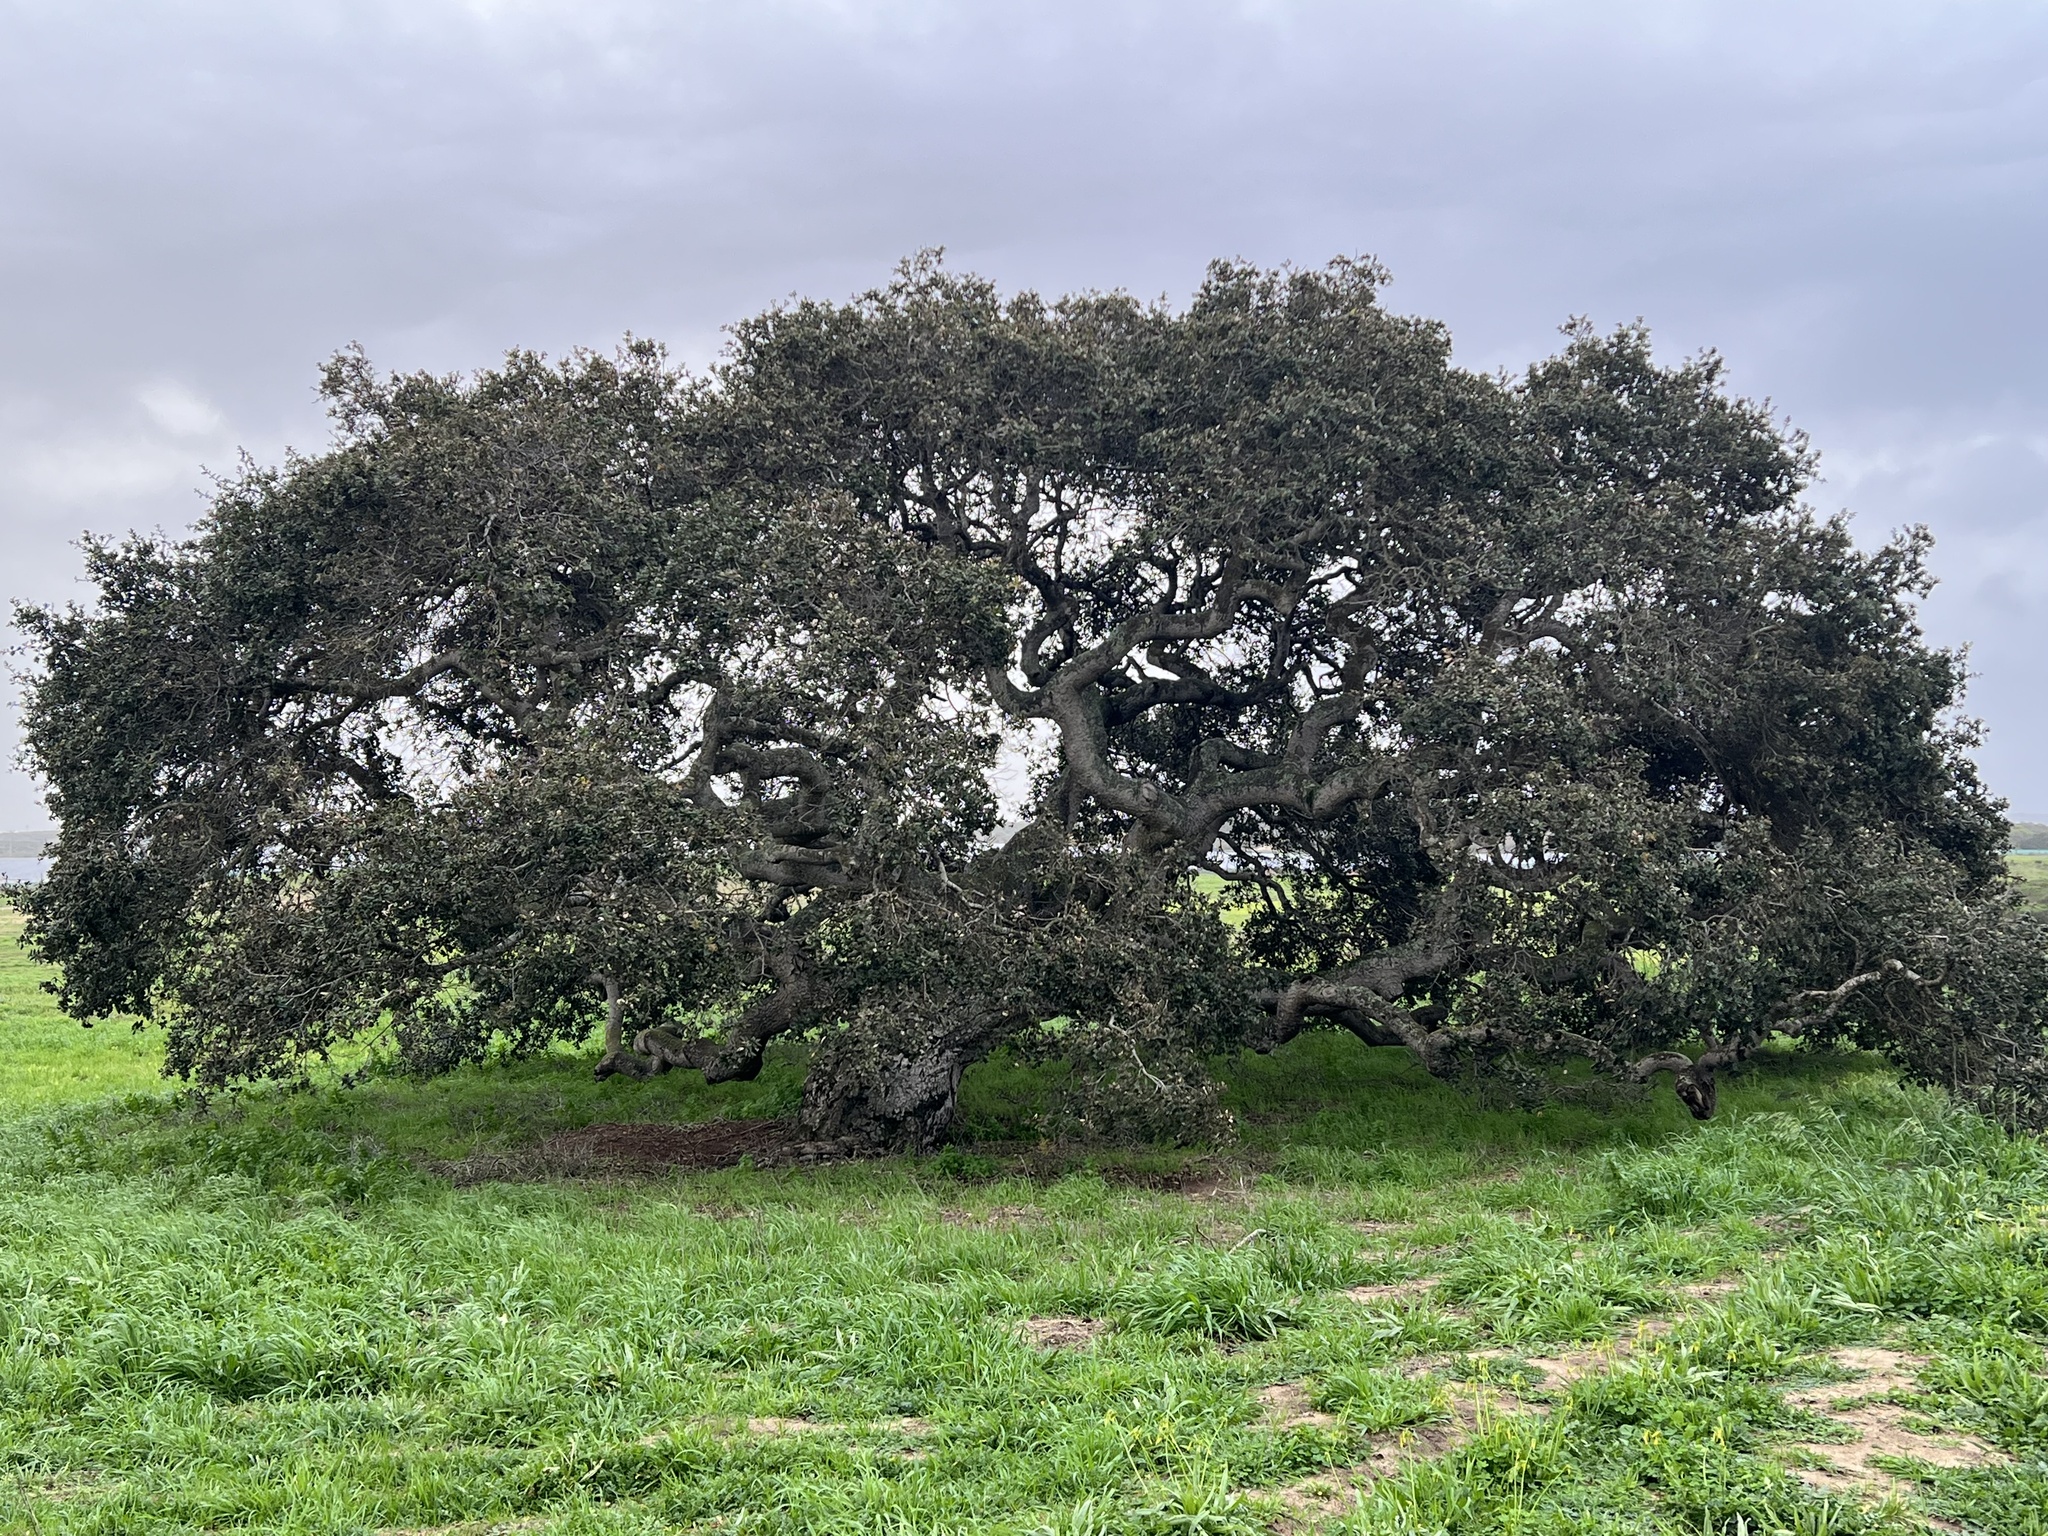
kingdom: Plantae
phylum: Tracheophyta
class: Magnoliopsida
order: Fagales
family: Fagaceae
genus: Quercus
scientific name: Quercus agrifolia
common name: California live oak
